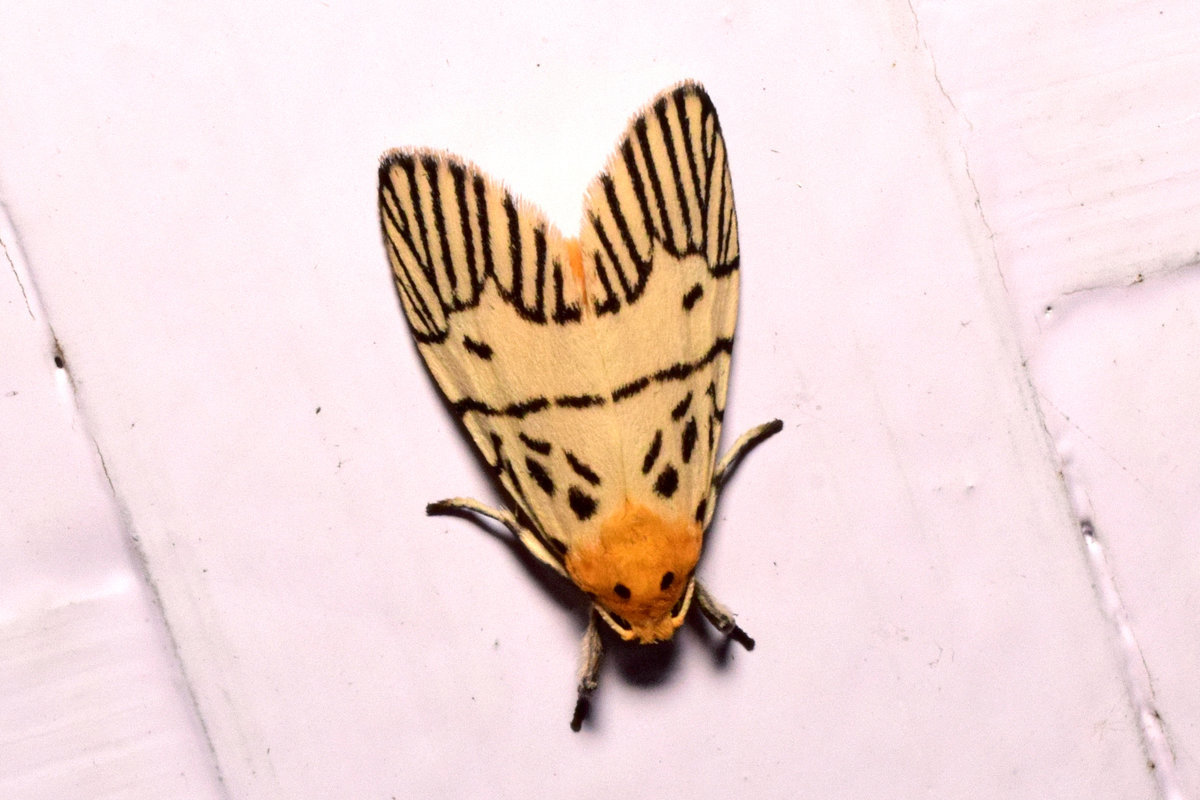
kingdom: Animalia
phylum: Arthropoda
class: Insecta
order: Lepidoptera
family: Erebidae
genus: Ammatho
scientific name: Ammatho
